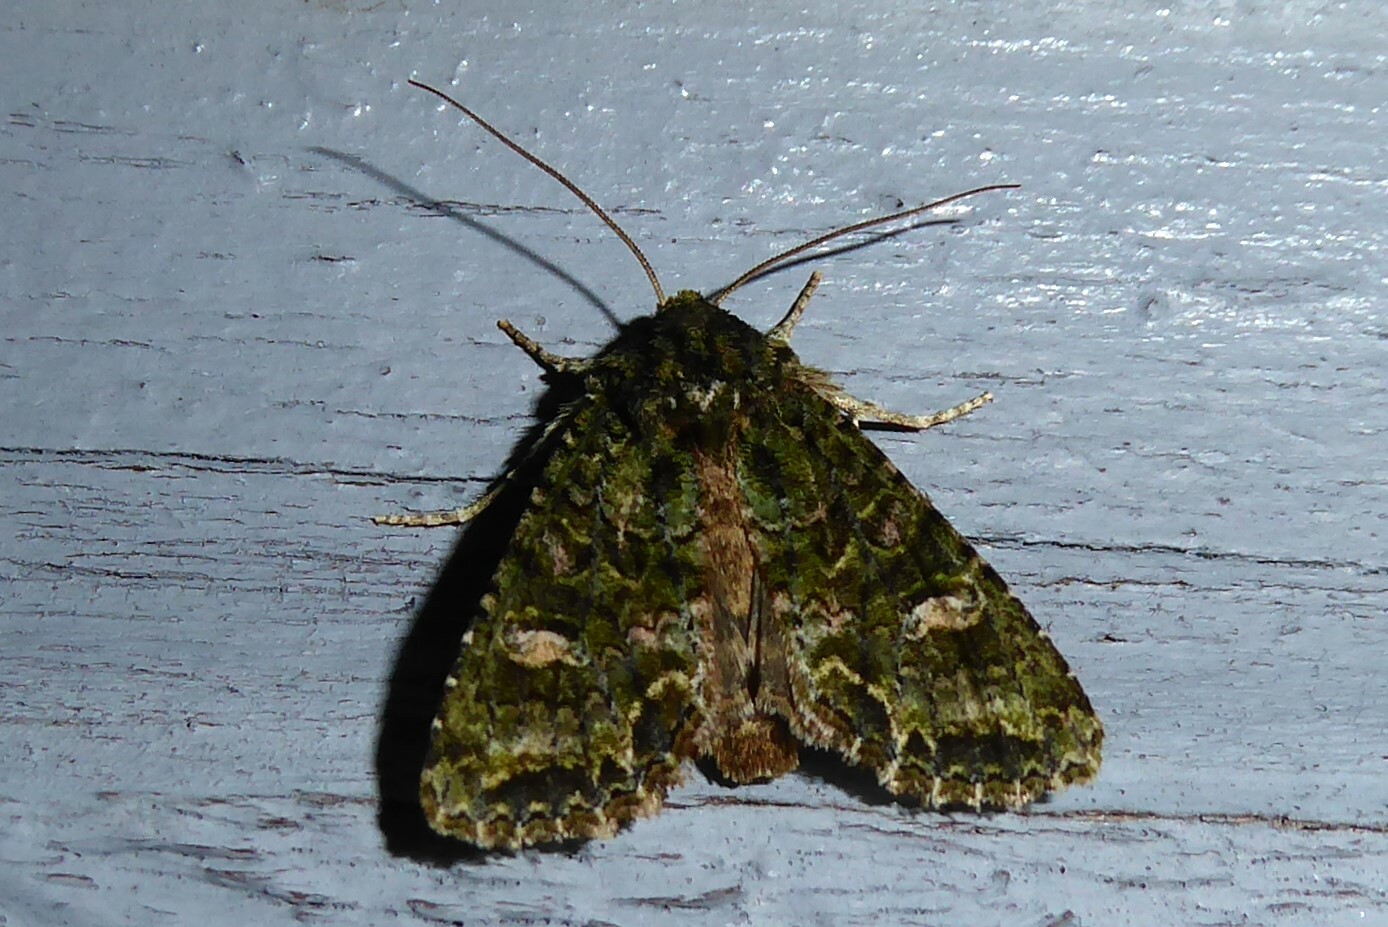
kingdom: Animalia
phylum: Arthropoda
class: Insecta
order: Lepidoptera
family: Noctuidae
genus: Ichneutica
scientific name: Ichneutica
